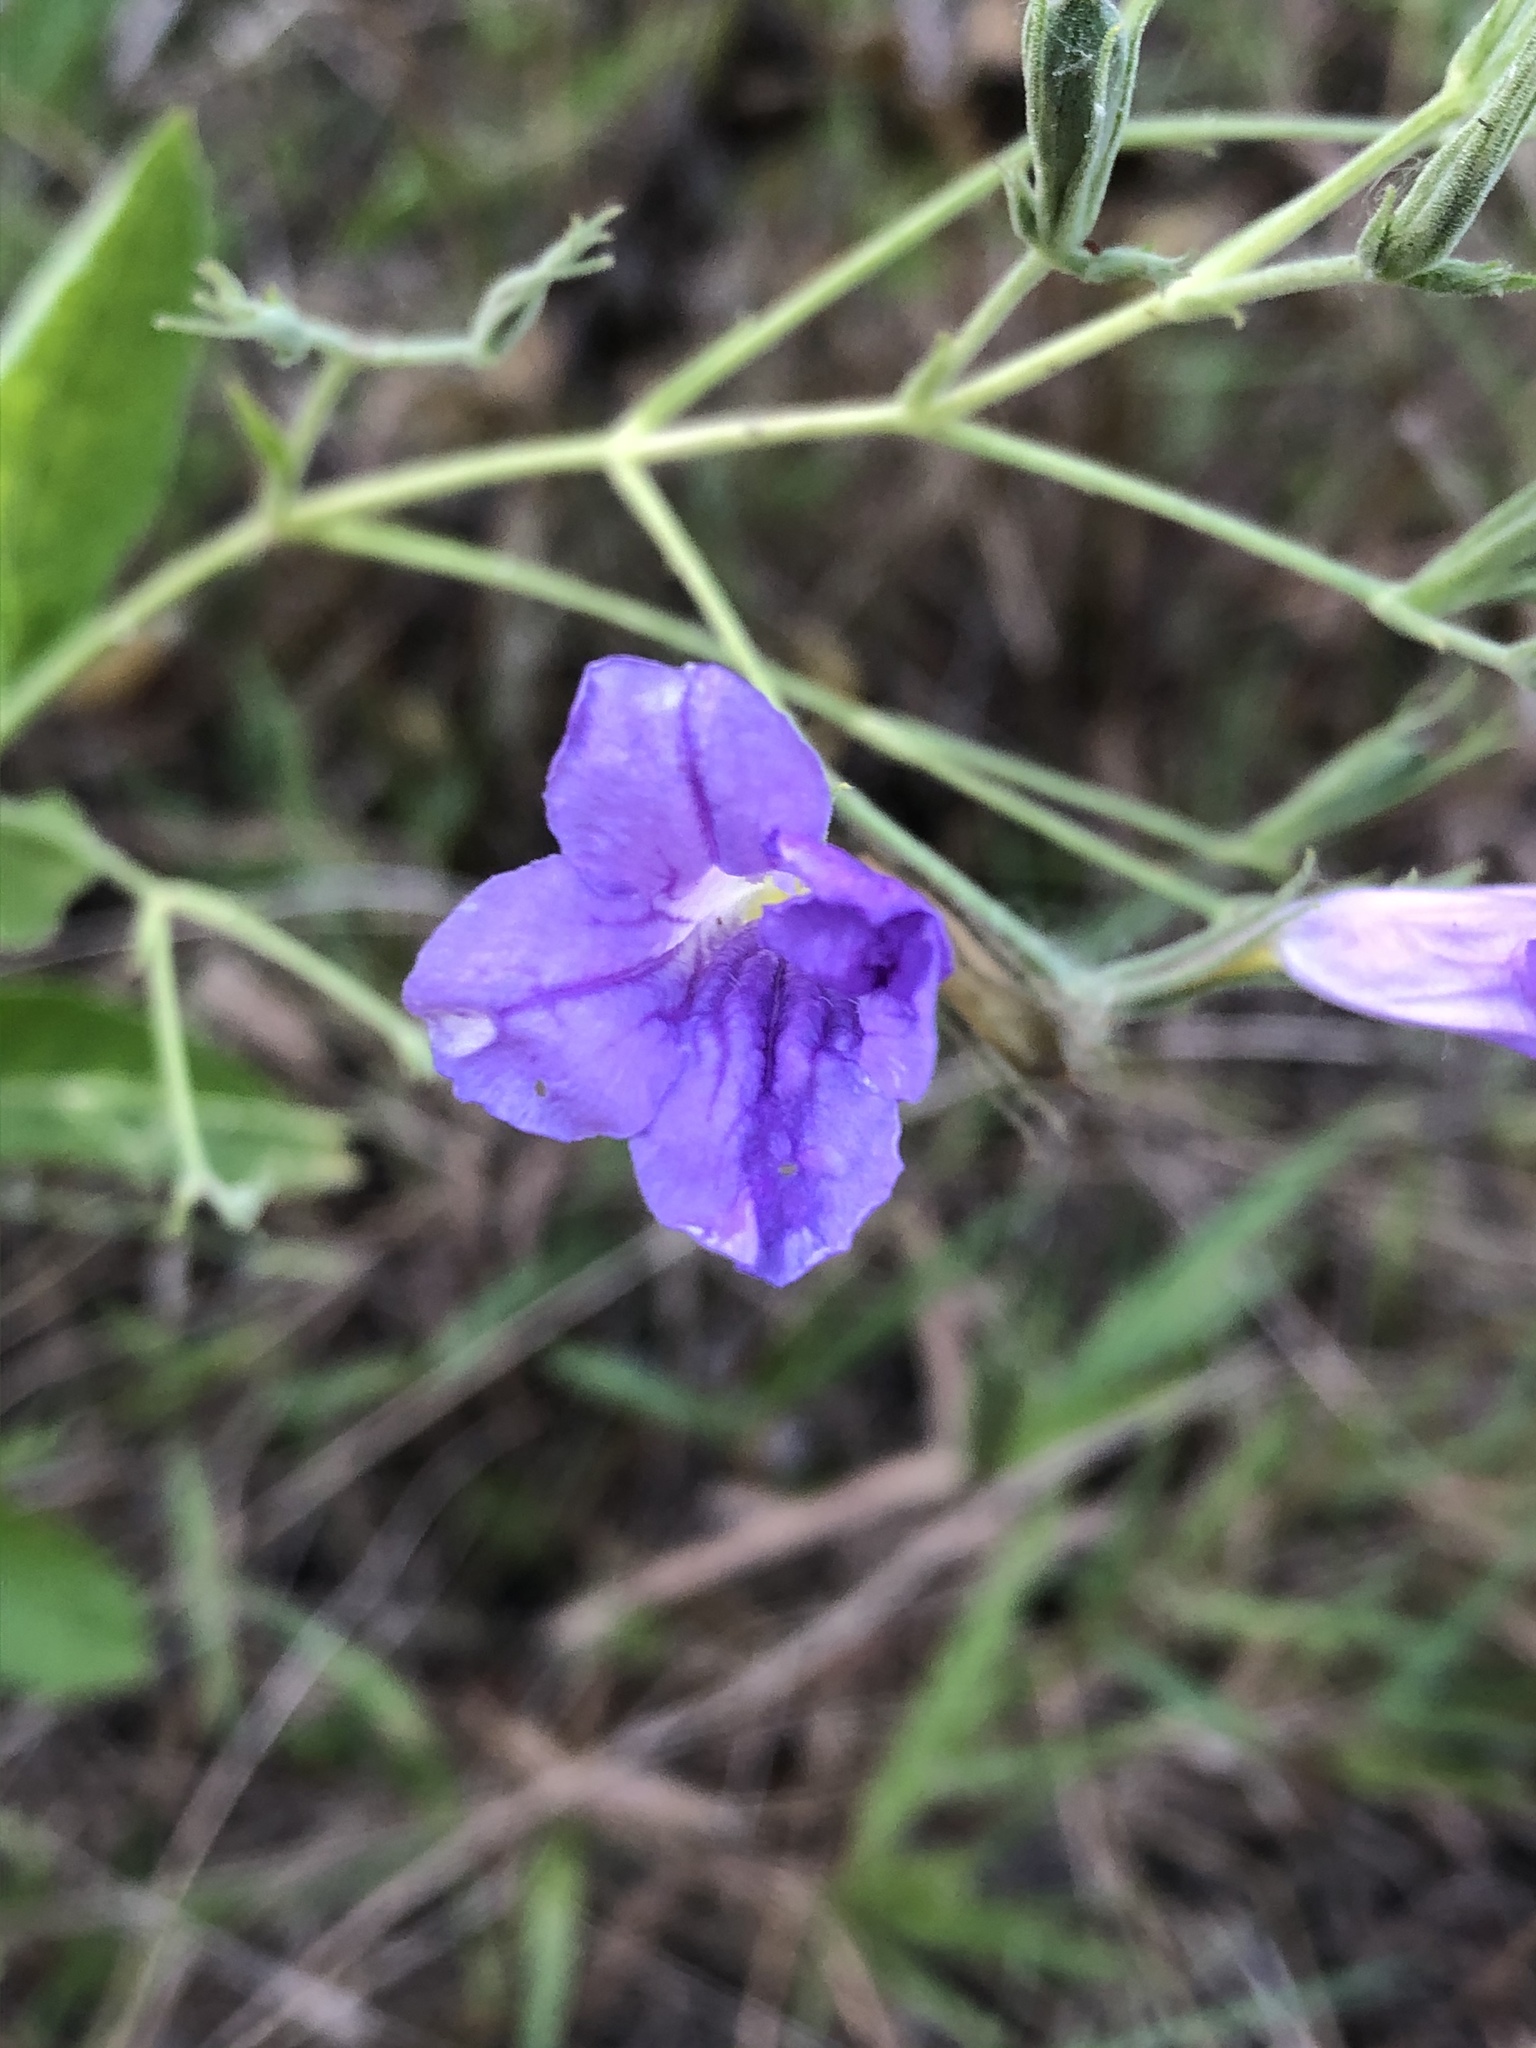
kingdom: Plantae
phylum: Tracheophyta
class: Magnoliopsida
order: Lamiales
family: Acanthaceae
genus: Ruellia
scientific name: Ruellia ciliatiflora
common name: Hairyflower wild petunia
